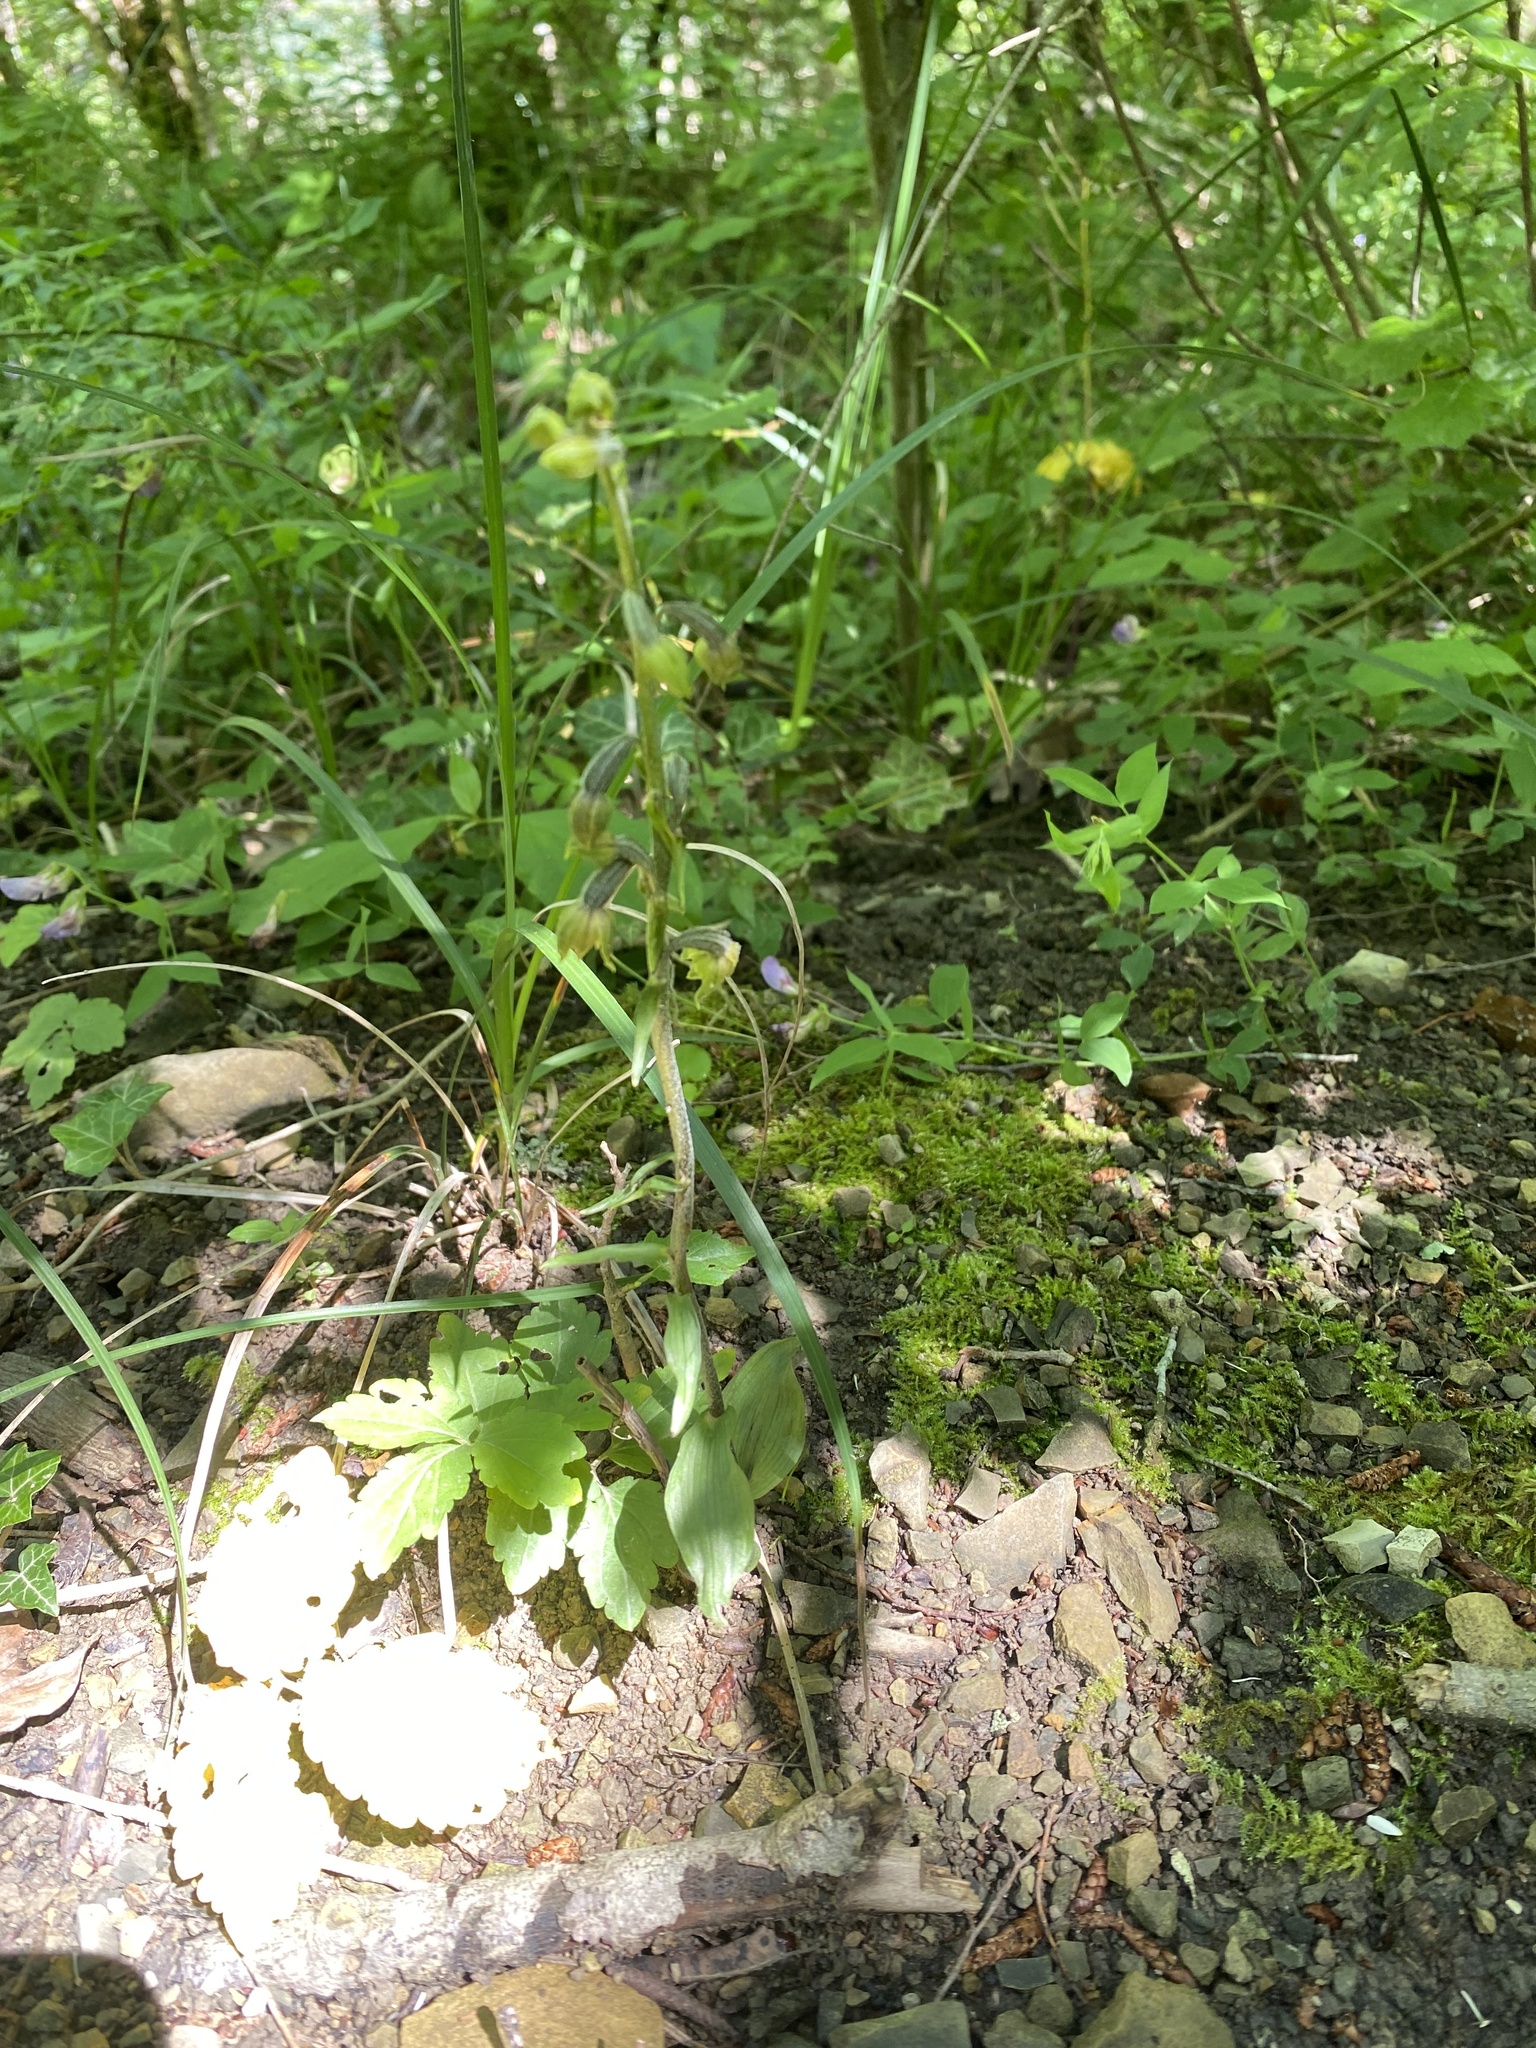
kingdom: Plantae
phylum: Tracheophyta
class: Liliopsida
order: Asparagales
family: Orchidaceae
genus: Epipactis
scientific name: Epipactis microphylla
